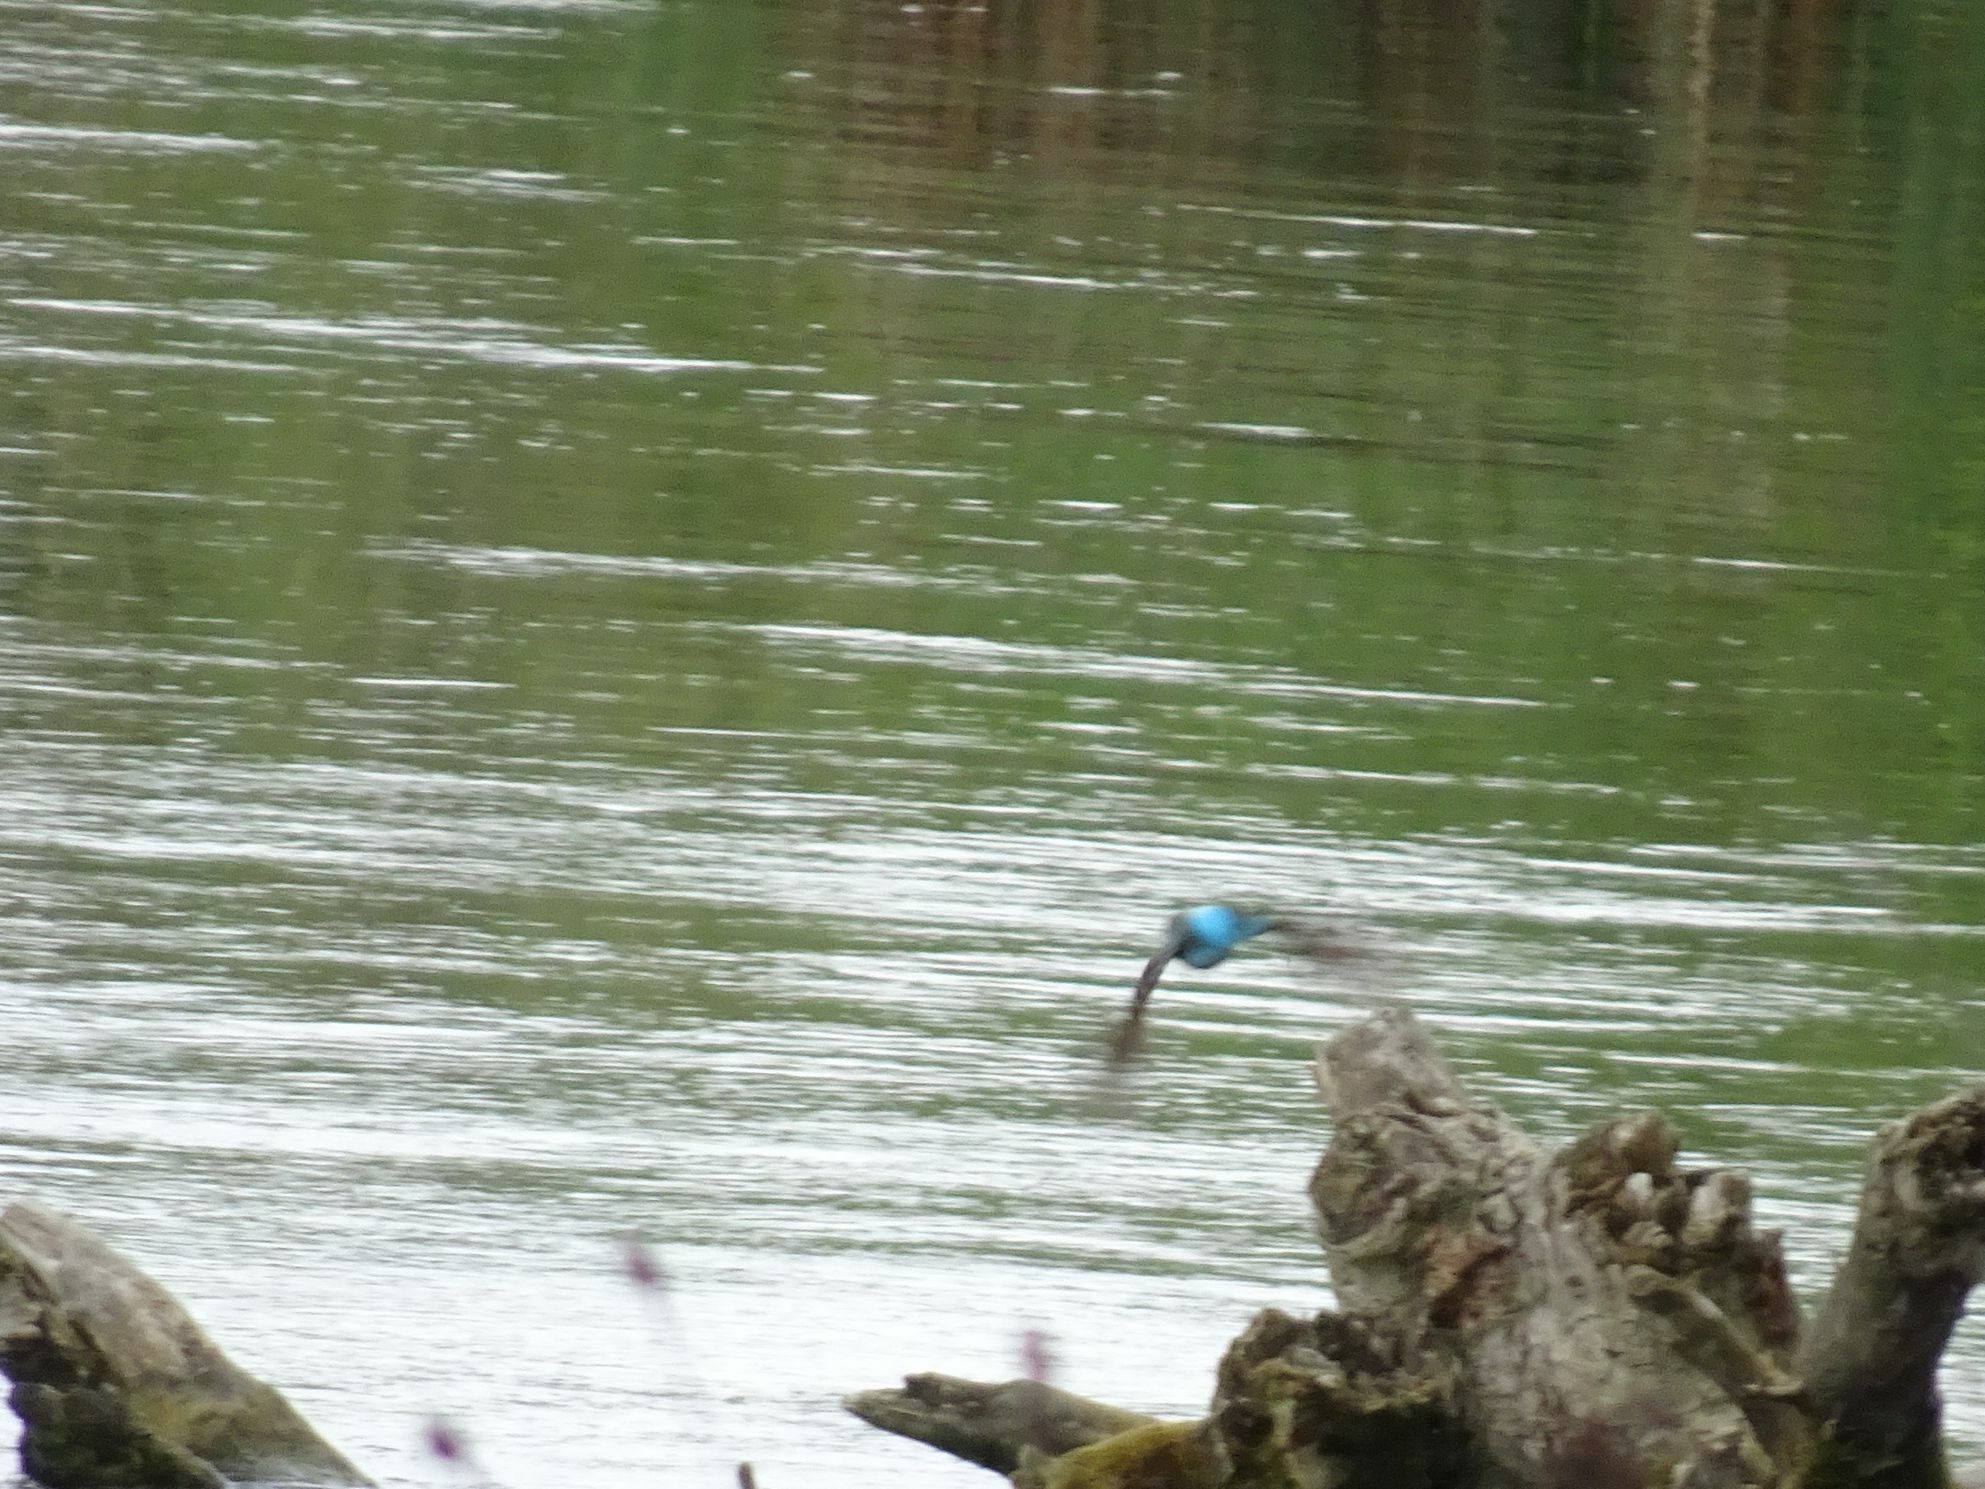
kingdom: Animalia
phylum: Chordata
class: Aves
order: Coraciiformes
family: Alcedinidae
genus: Alcedo
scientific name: Alcedo atthis
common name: Common kingfisher
